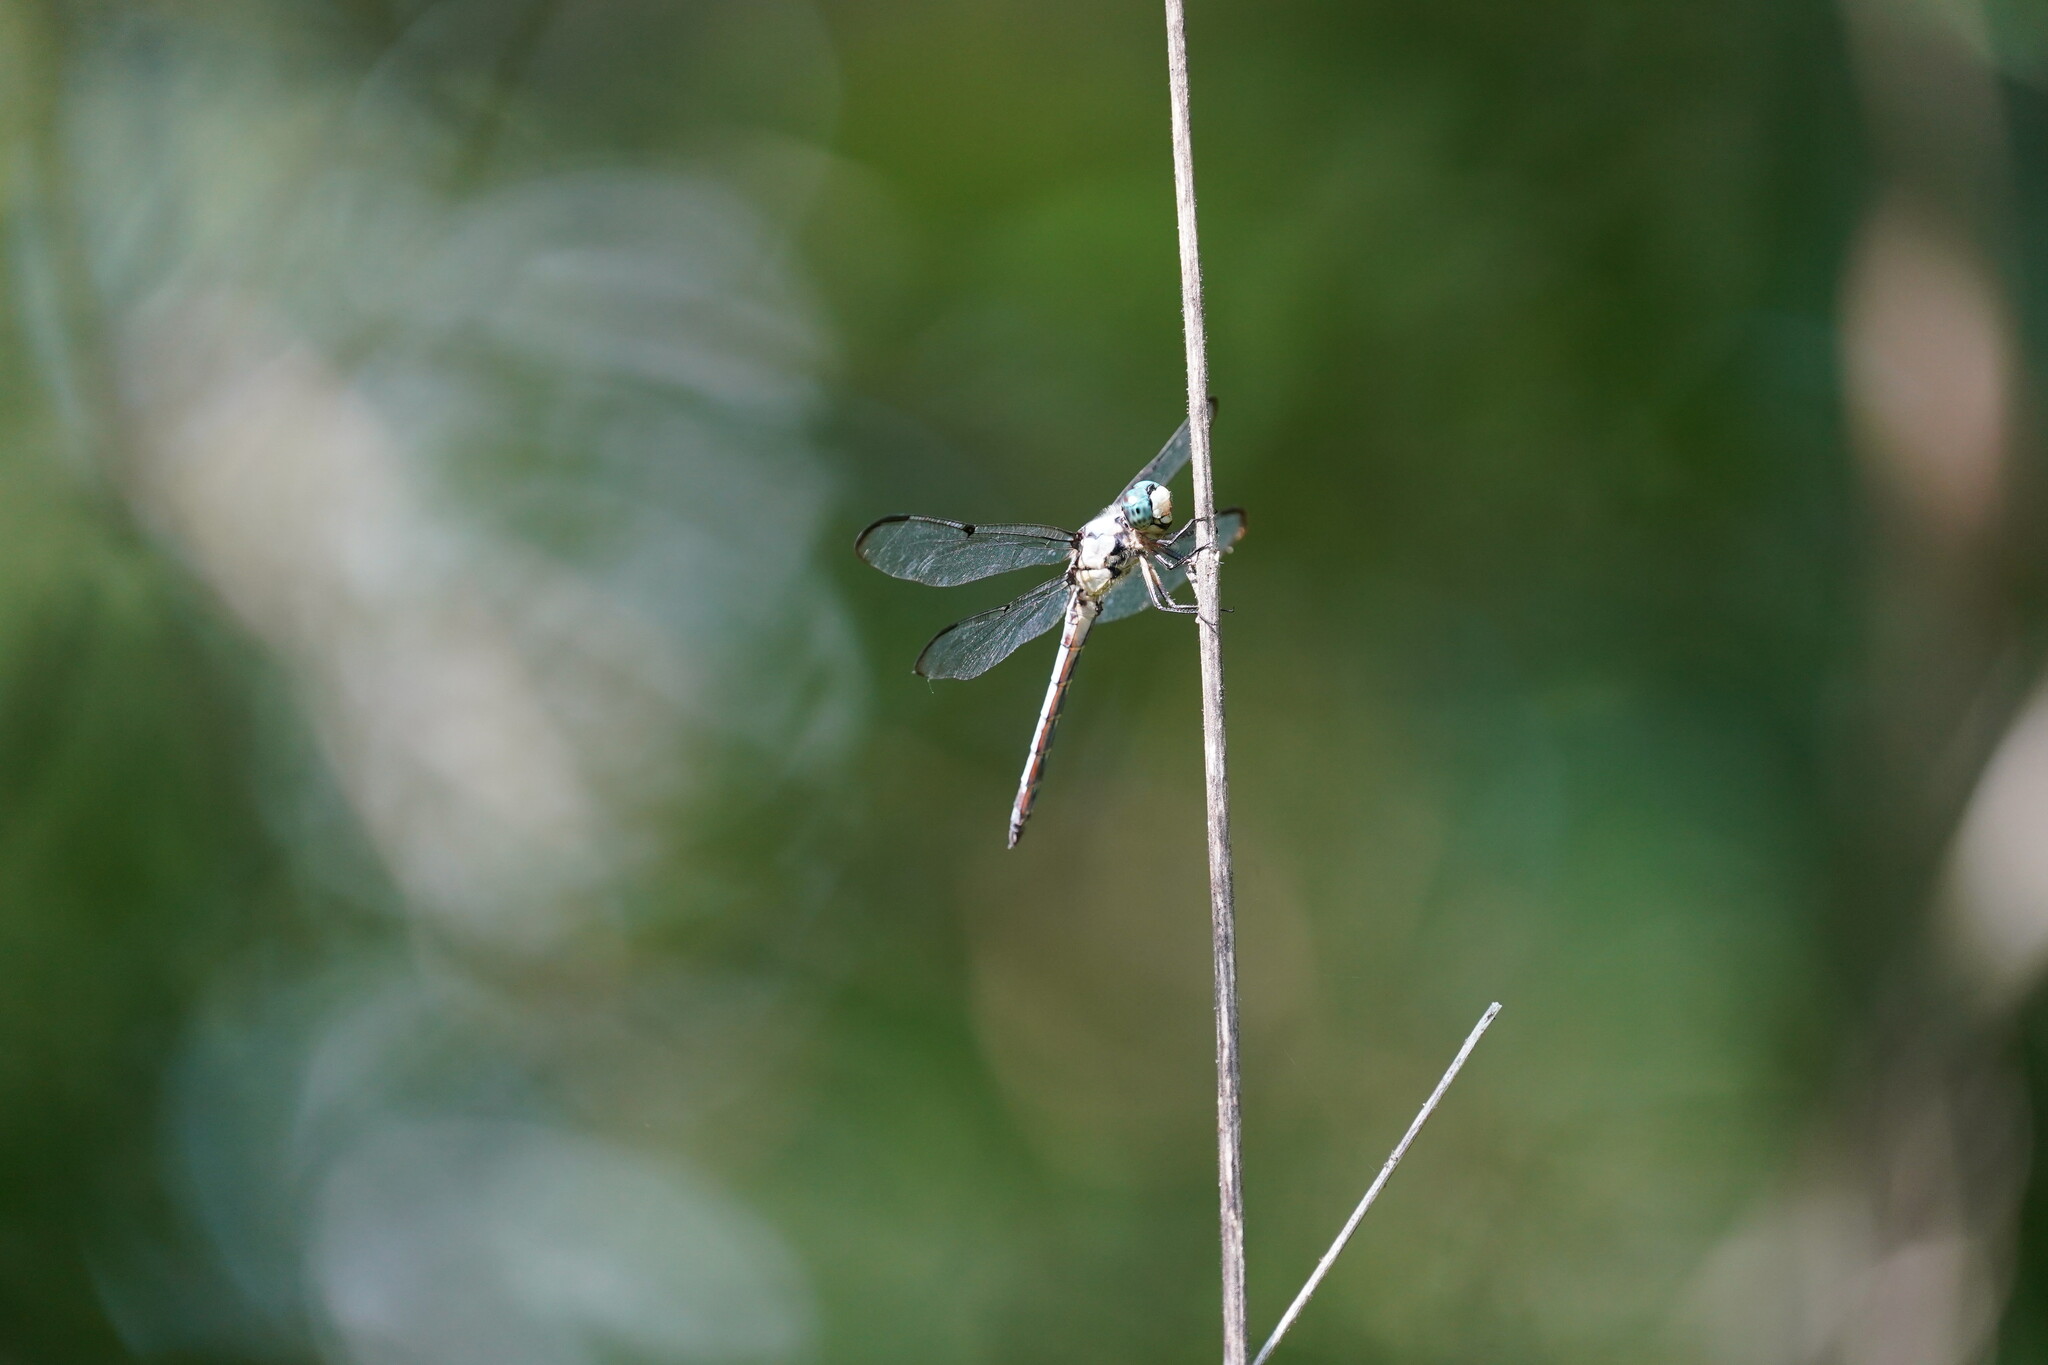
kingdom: Animalia
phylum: Arthropoda
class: Insecta
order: Odonata
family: Libellulidae
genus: Libellula
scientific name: Libellula vibrans
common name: Great blue skimmer
